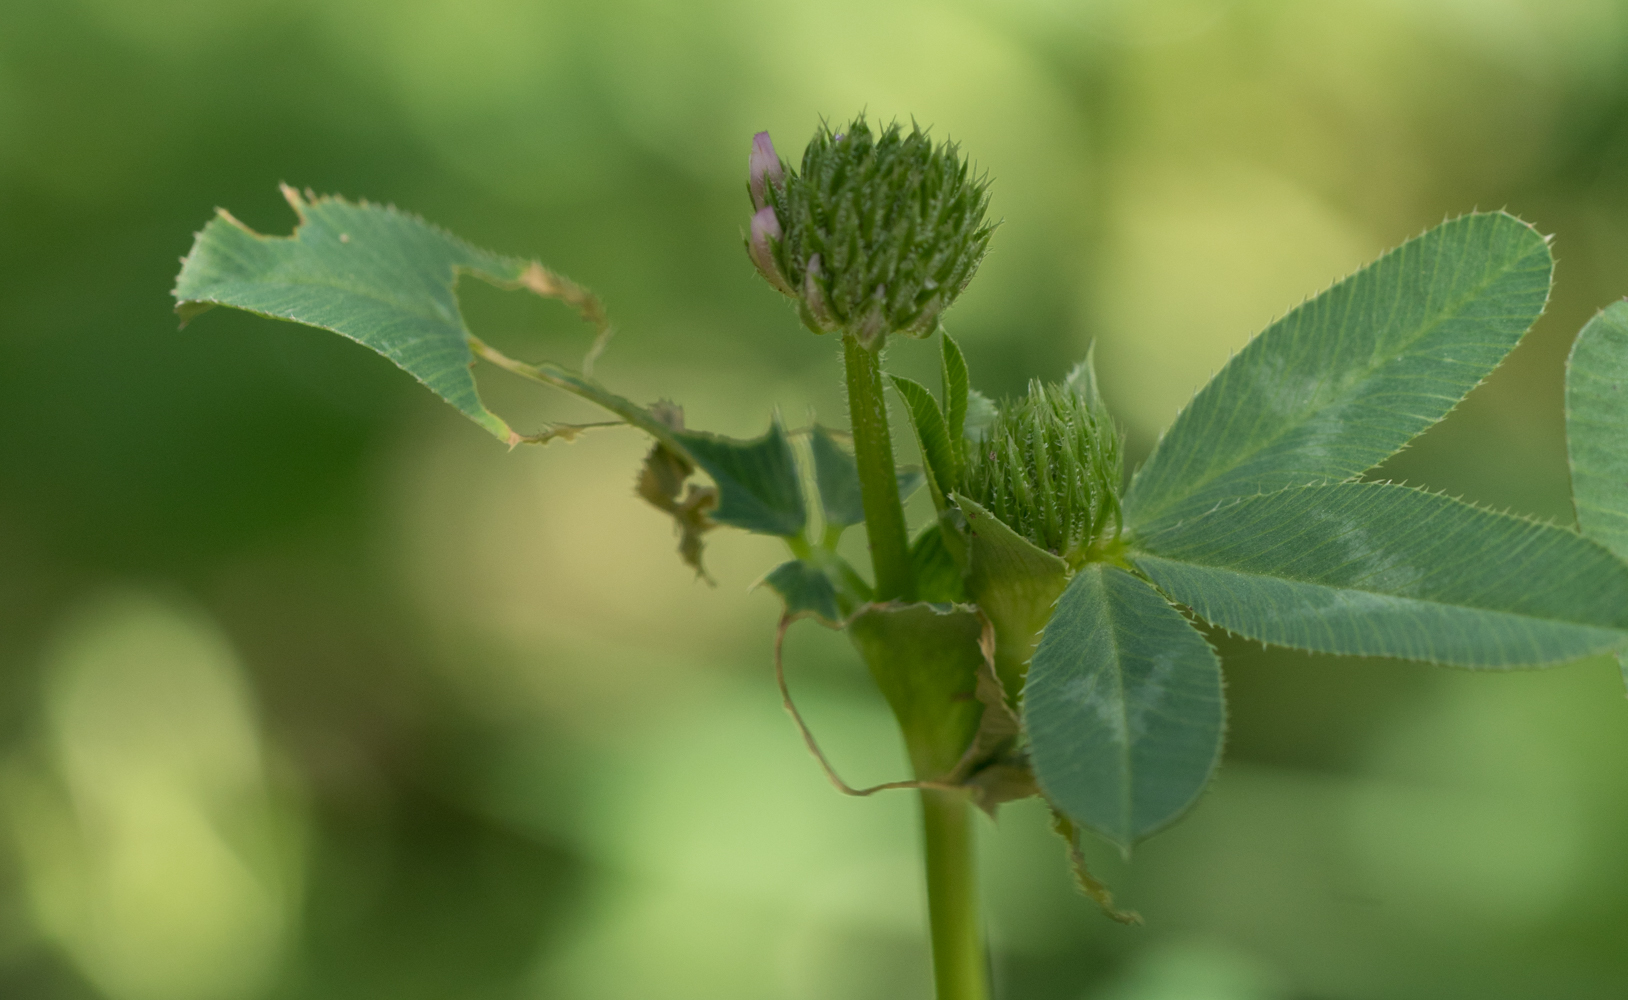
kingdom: Plantae
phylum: Tracheophyta
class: Magnoliopsida
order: Fabales
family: Fabaceae
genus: Trifolium
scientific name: Trifolium ciliolatum
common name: Foothill clover
